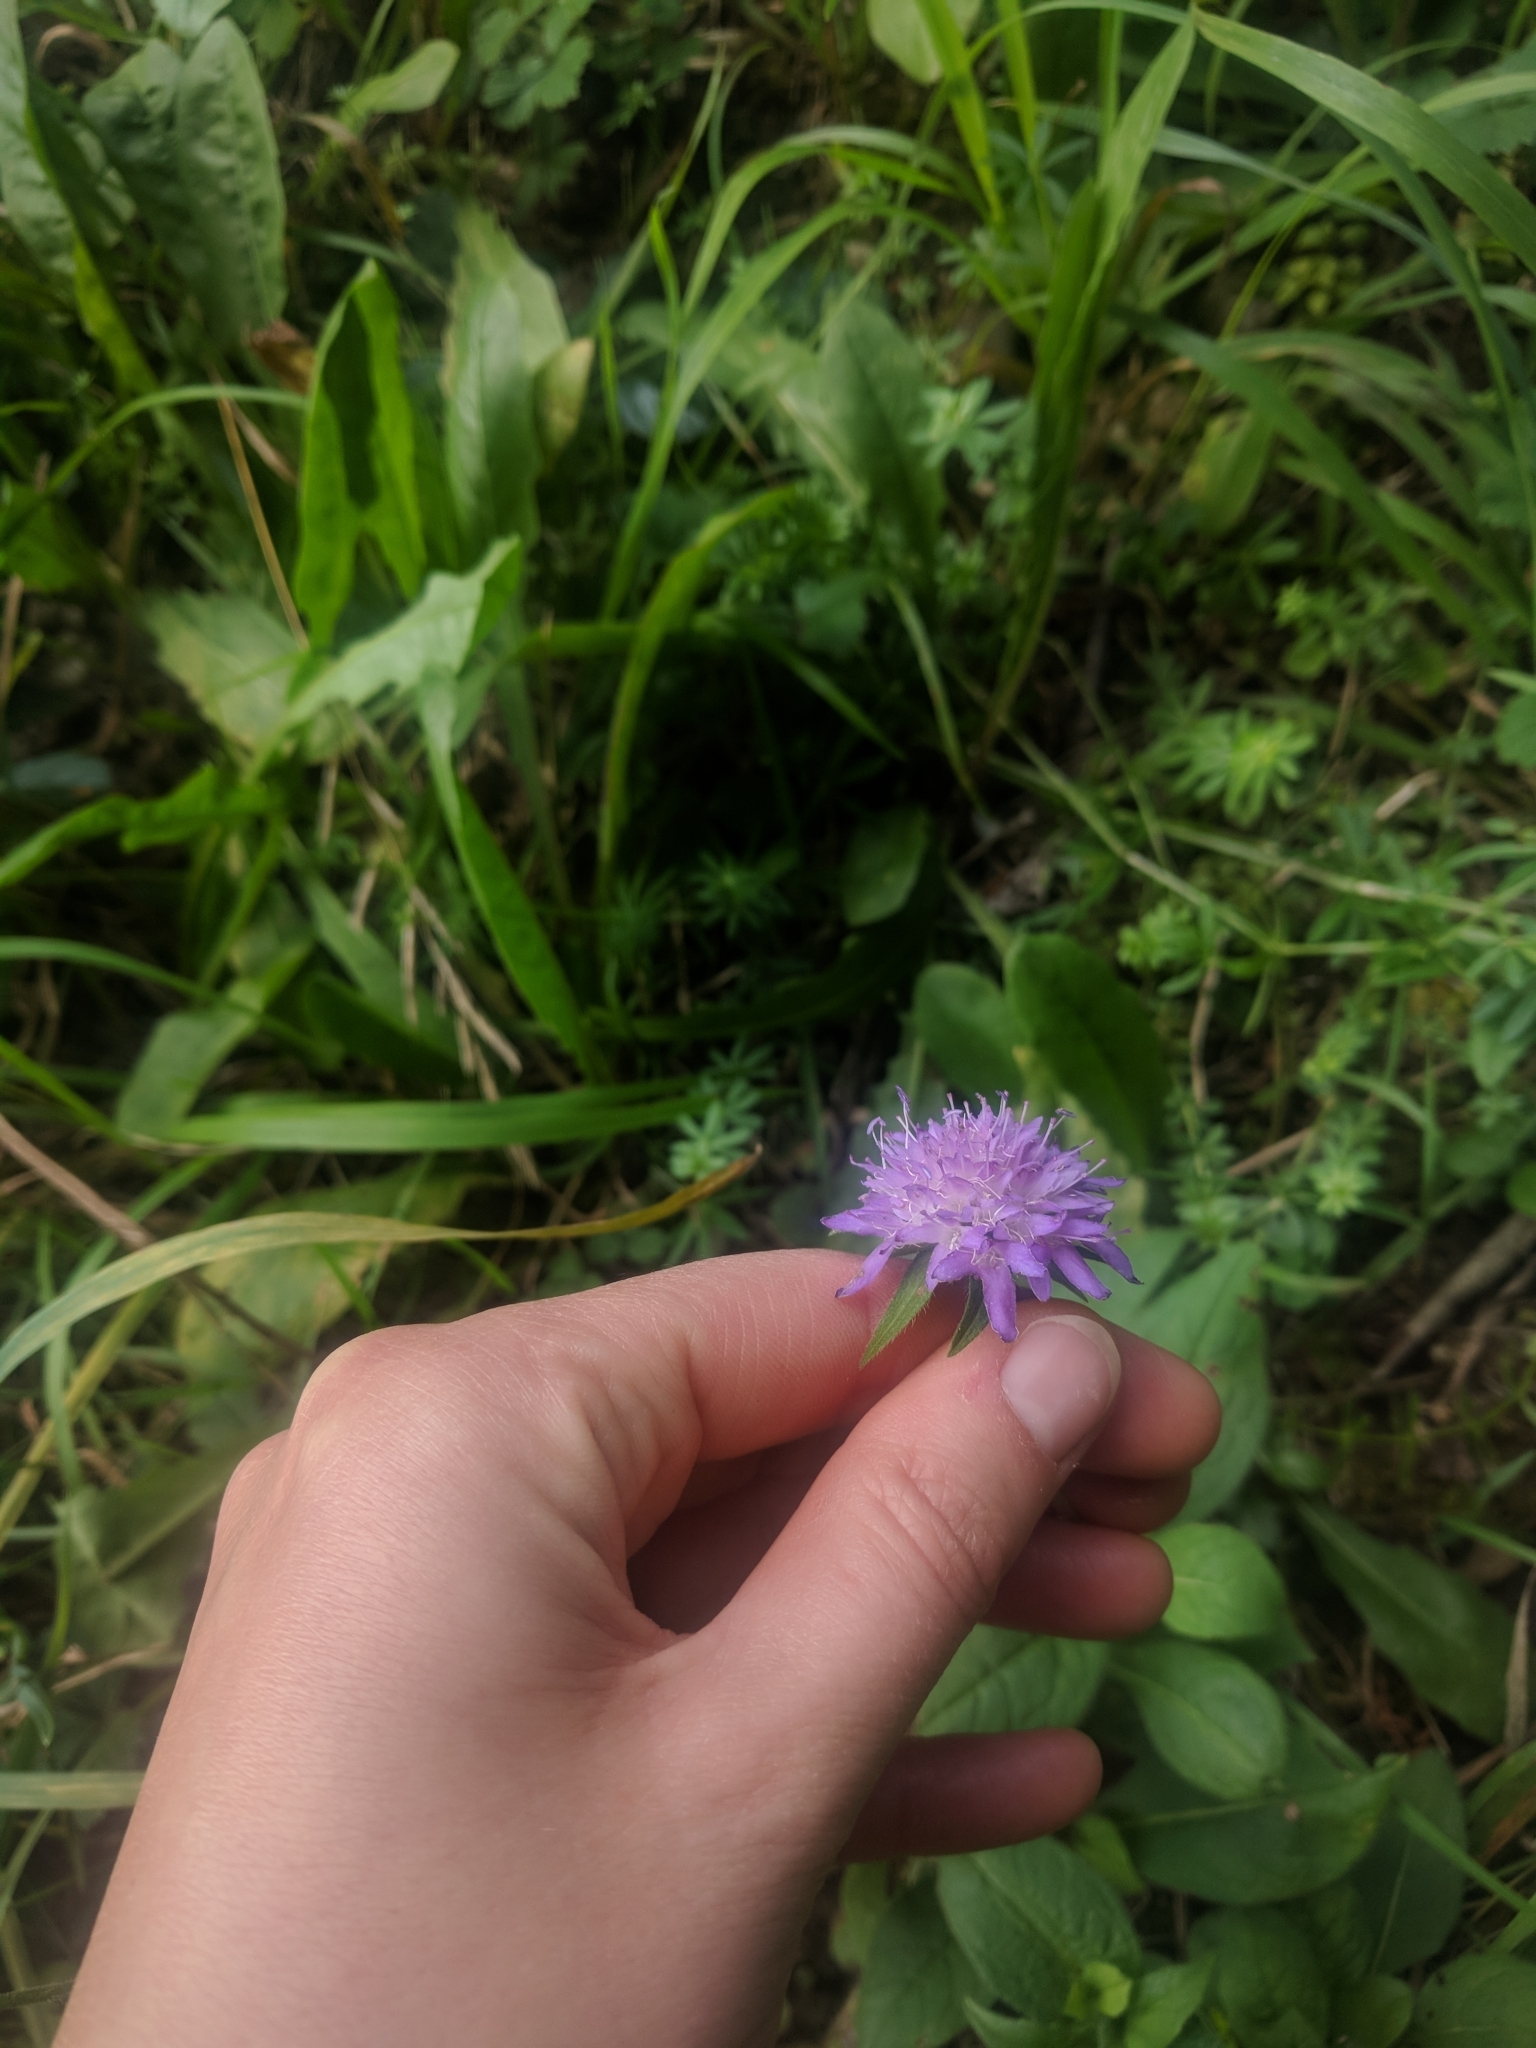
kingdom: Plantae
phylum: Tracheophyta
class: Magnoliopsida
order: Dipsacales
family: Caprifoliaceae
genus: Knautia
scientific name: Knautia dipsacifolia
